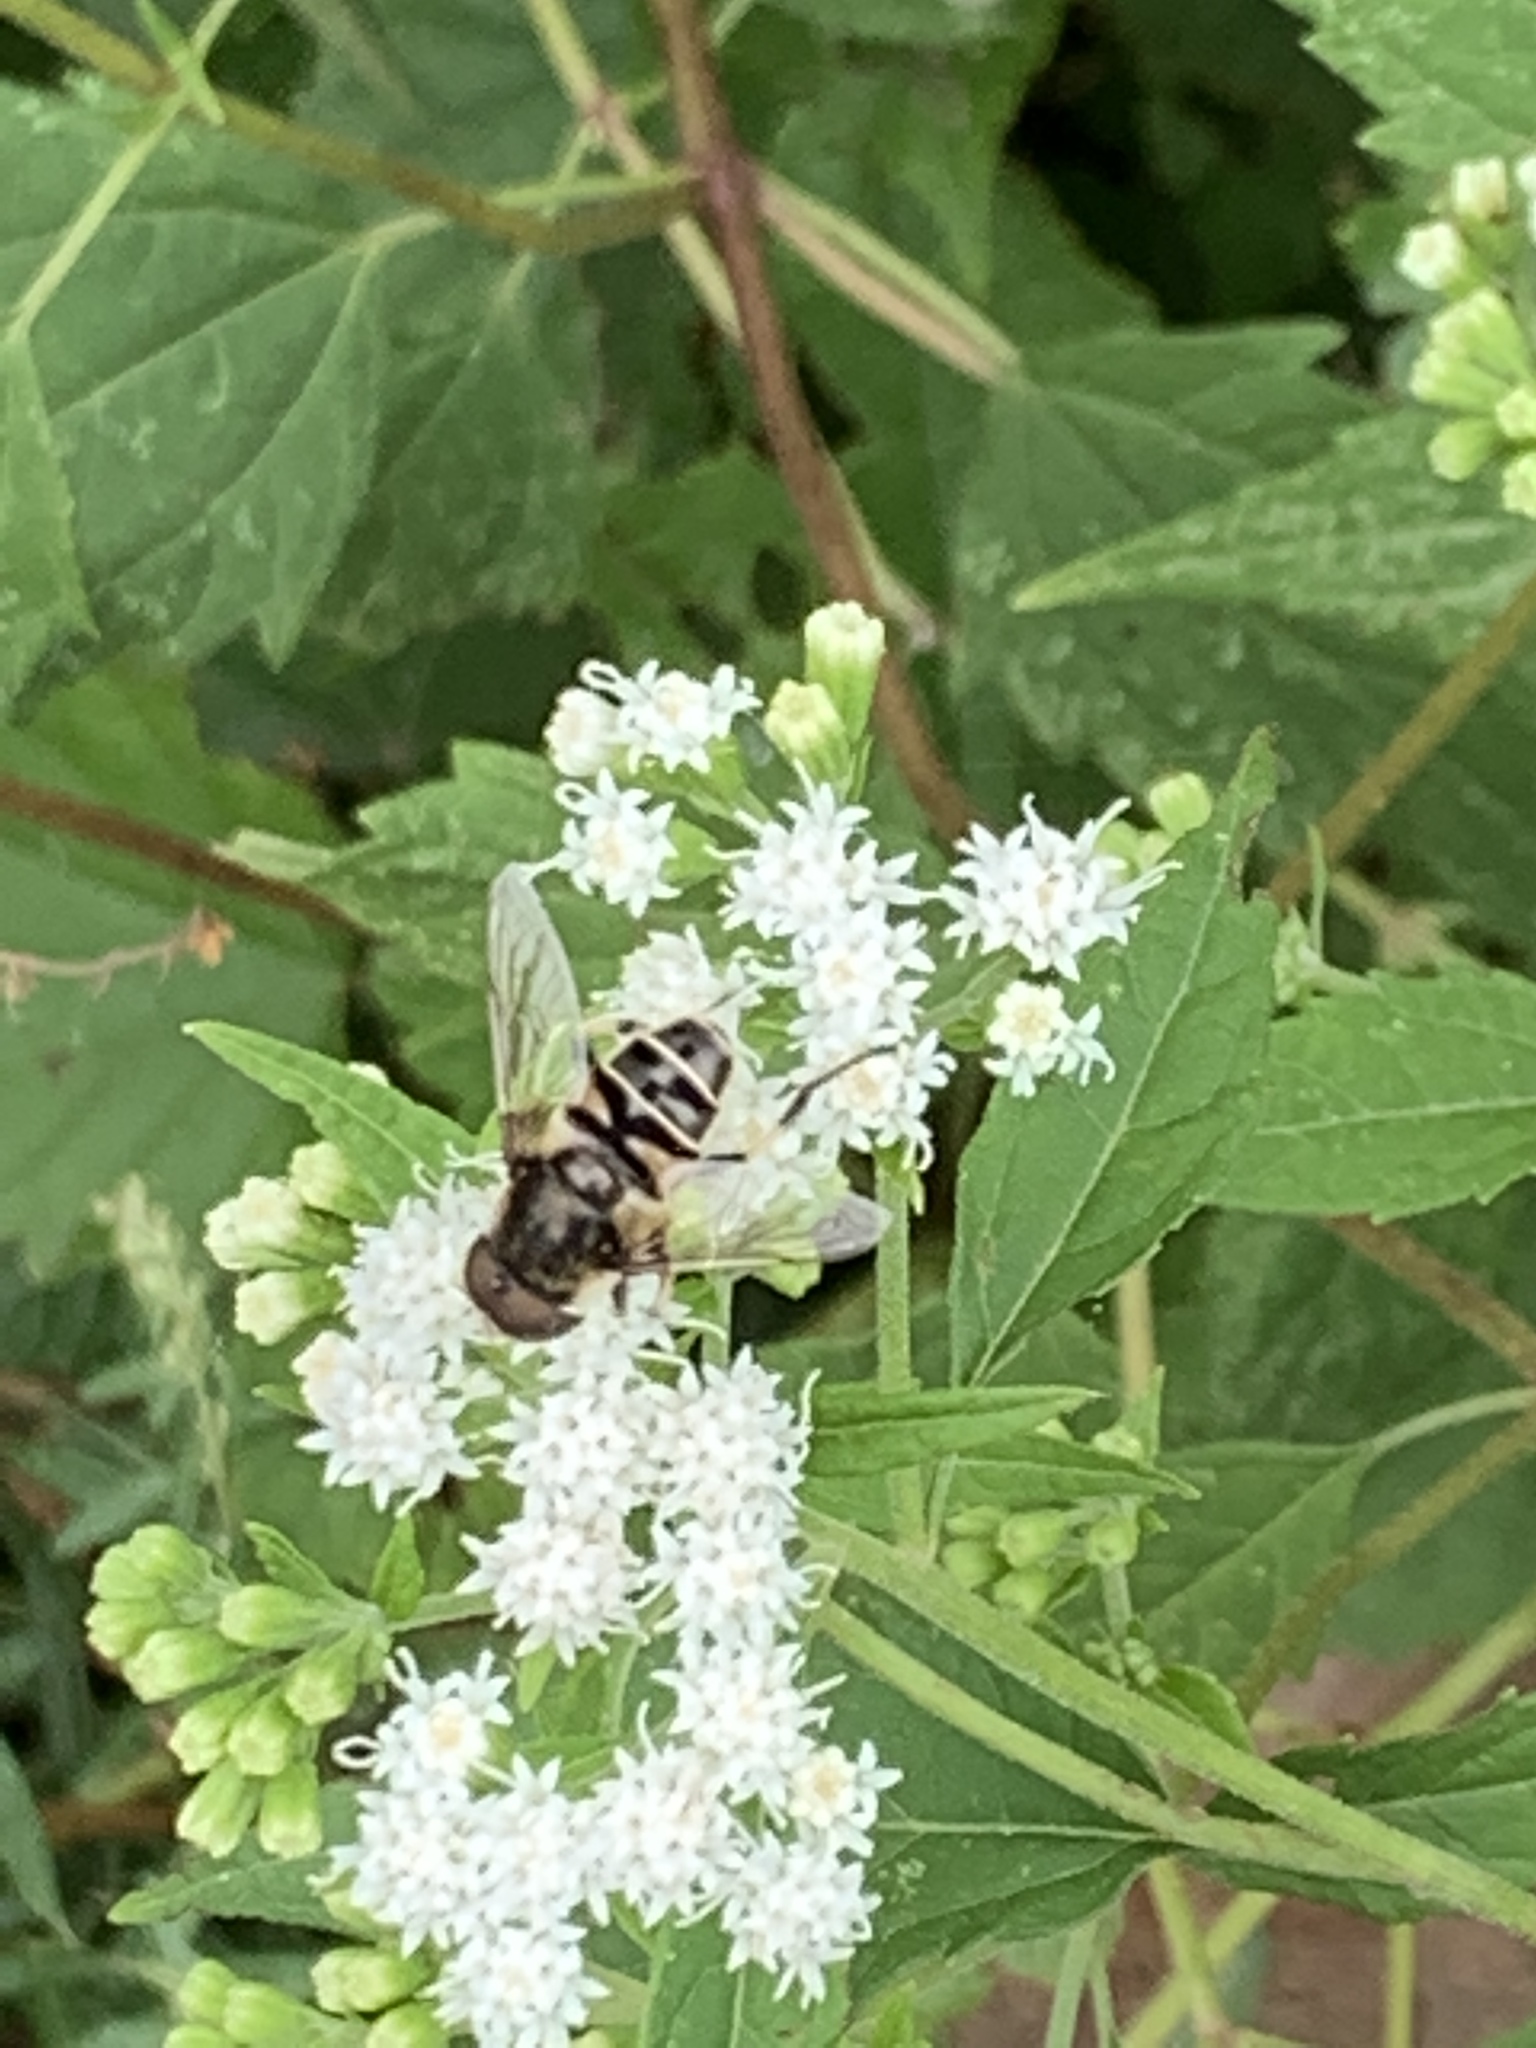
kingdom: Animalia
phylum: Arthropoda
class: Insecta
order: Diptera
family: Syrphidae
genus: Eristalis
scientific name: Eristalis dimidiata
